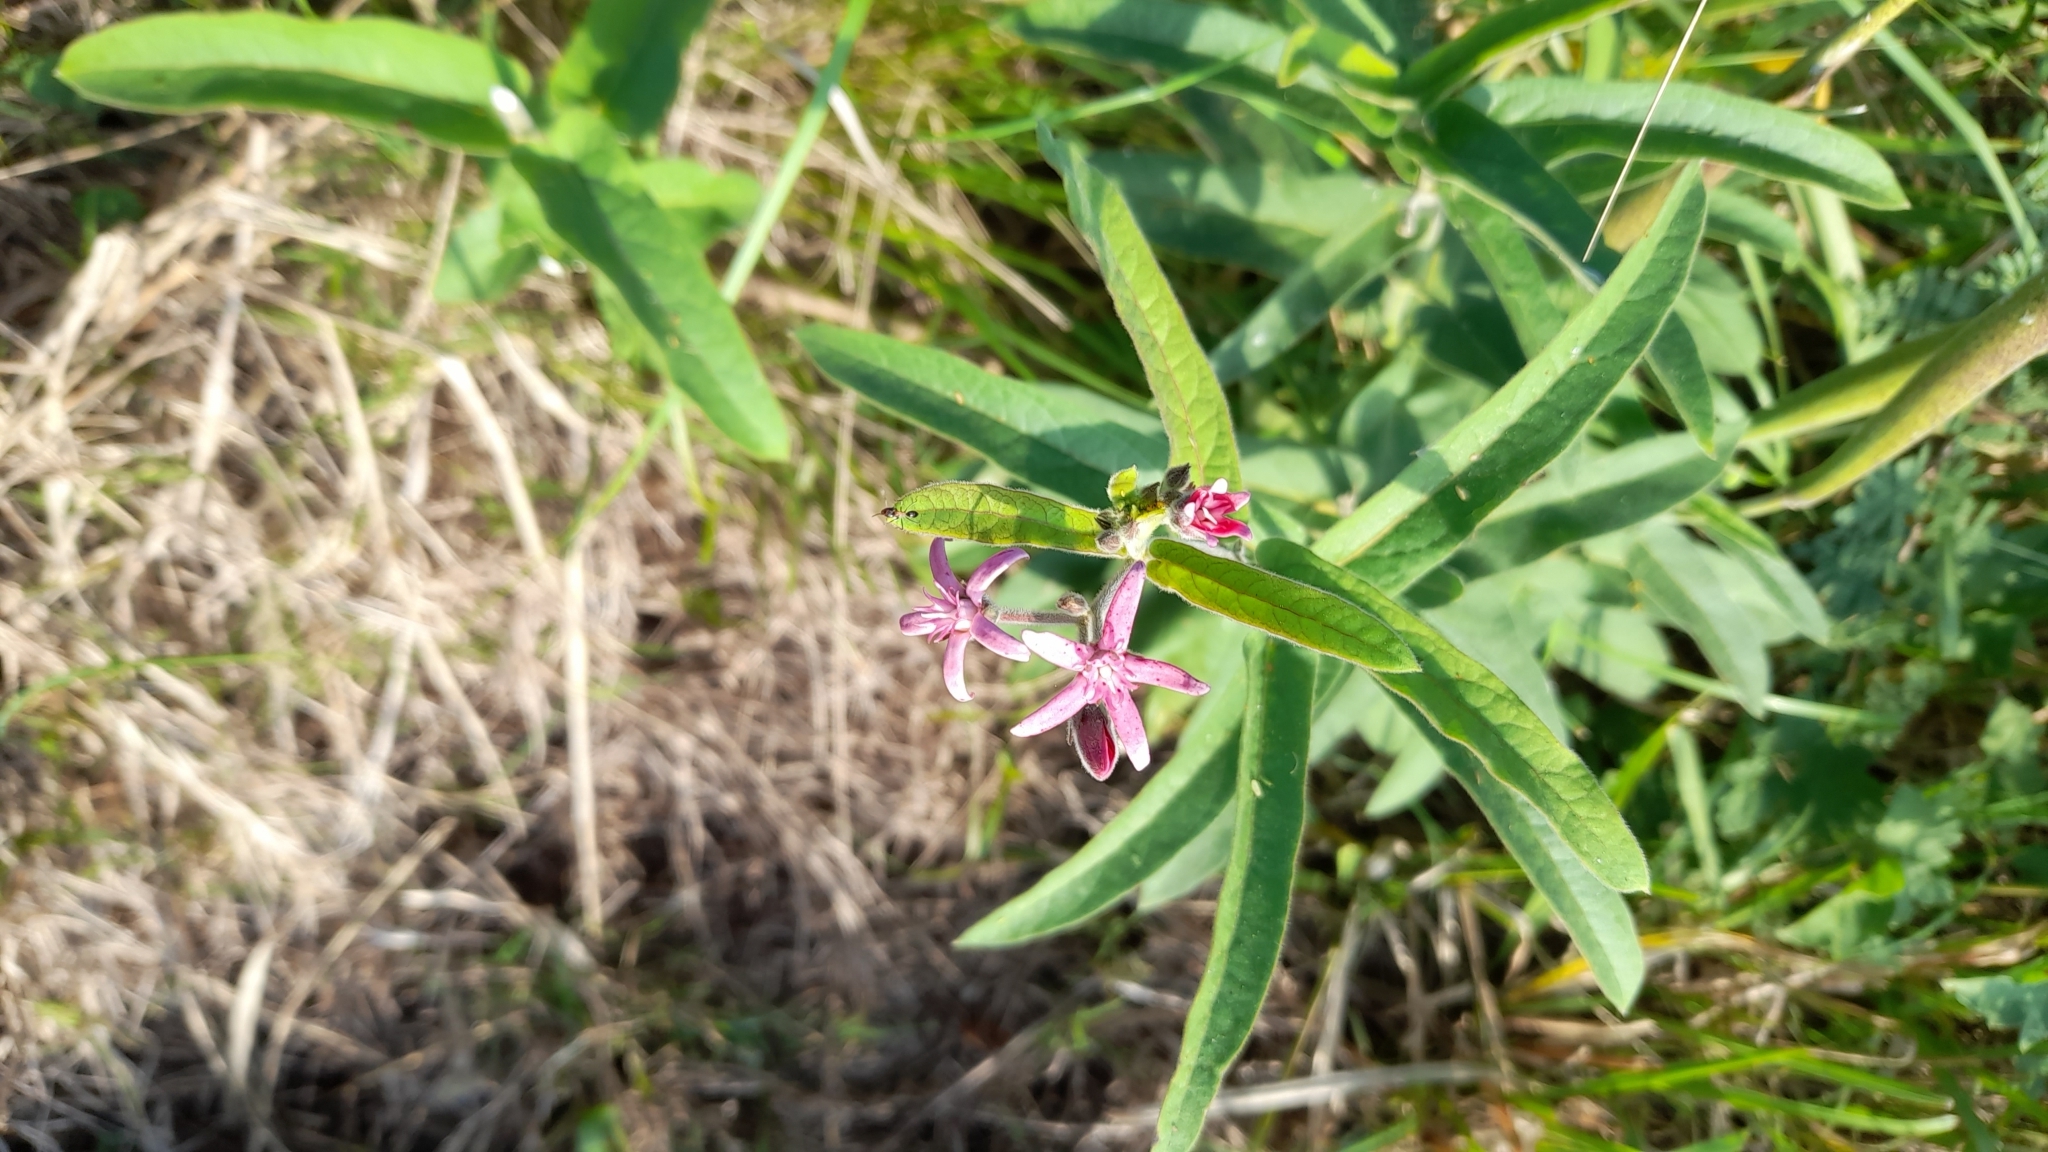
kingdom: Plantae
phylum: Tracheophyta
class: Magnoliopsida
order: Gentianales
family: Apocynaceae
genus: Oxypetalum
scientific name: Oxypetalum solanoides
